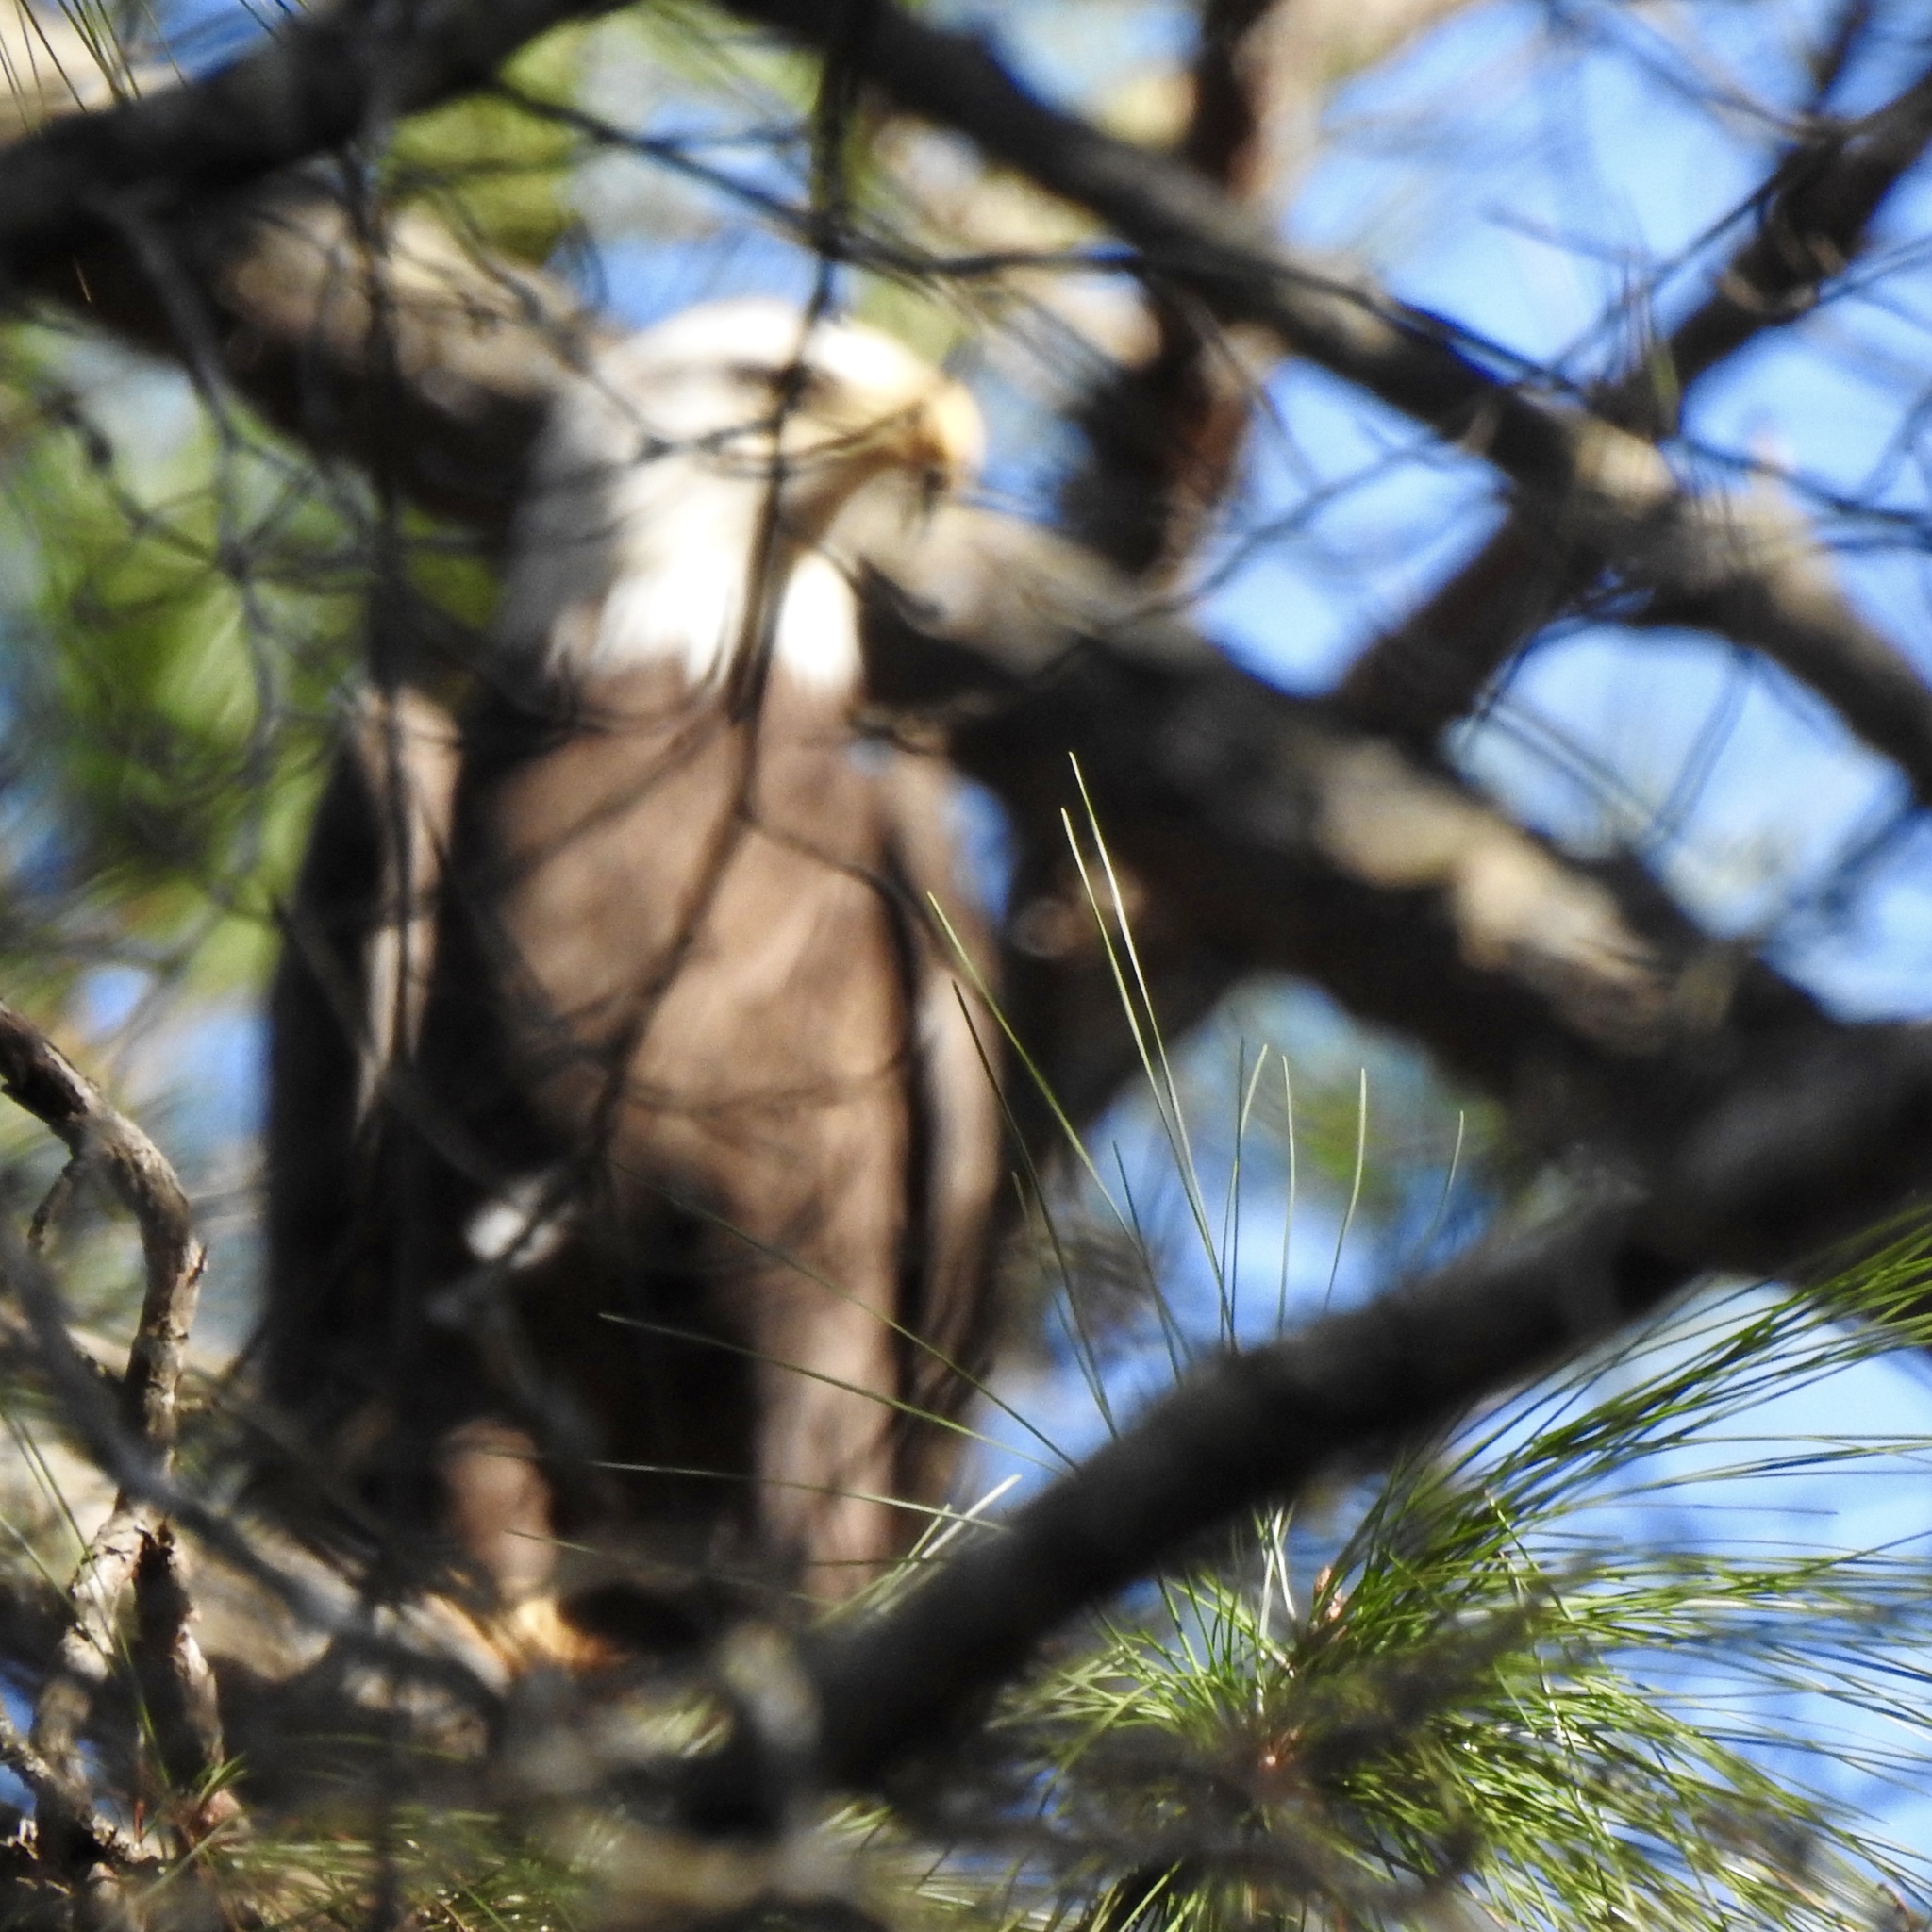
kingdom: Animalia
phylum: Chordata
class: Aves
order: Accipitriformes
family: Accipitridae
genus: Haliaeetus
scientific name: Haliaeetus leucocephalus
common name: Bald eagle
